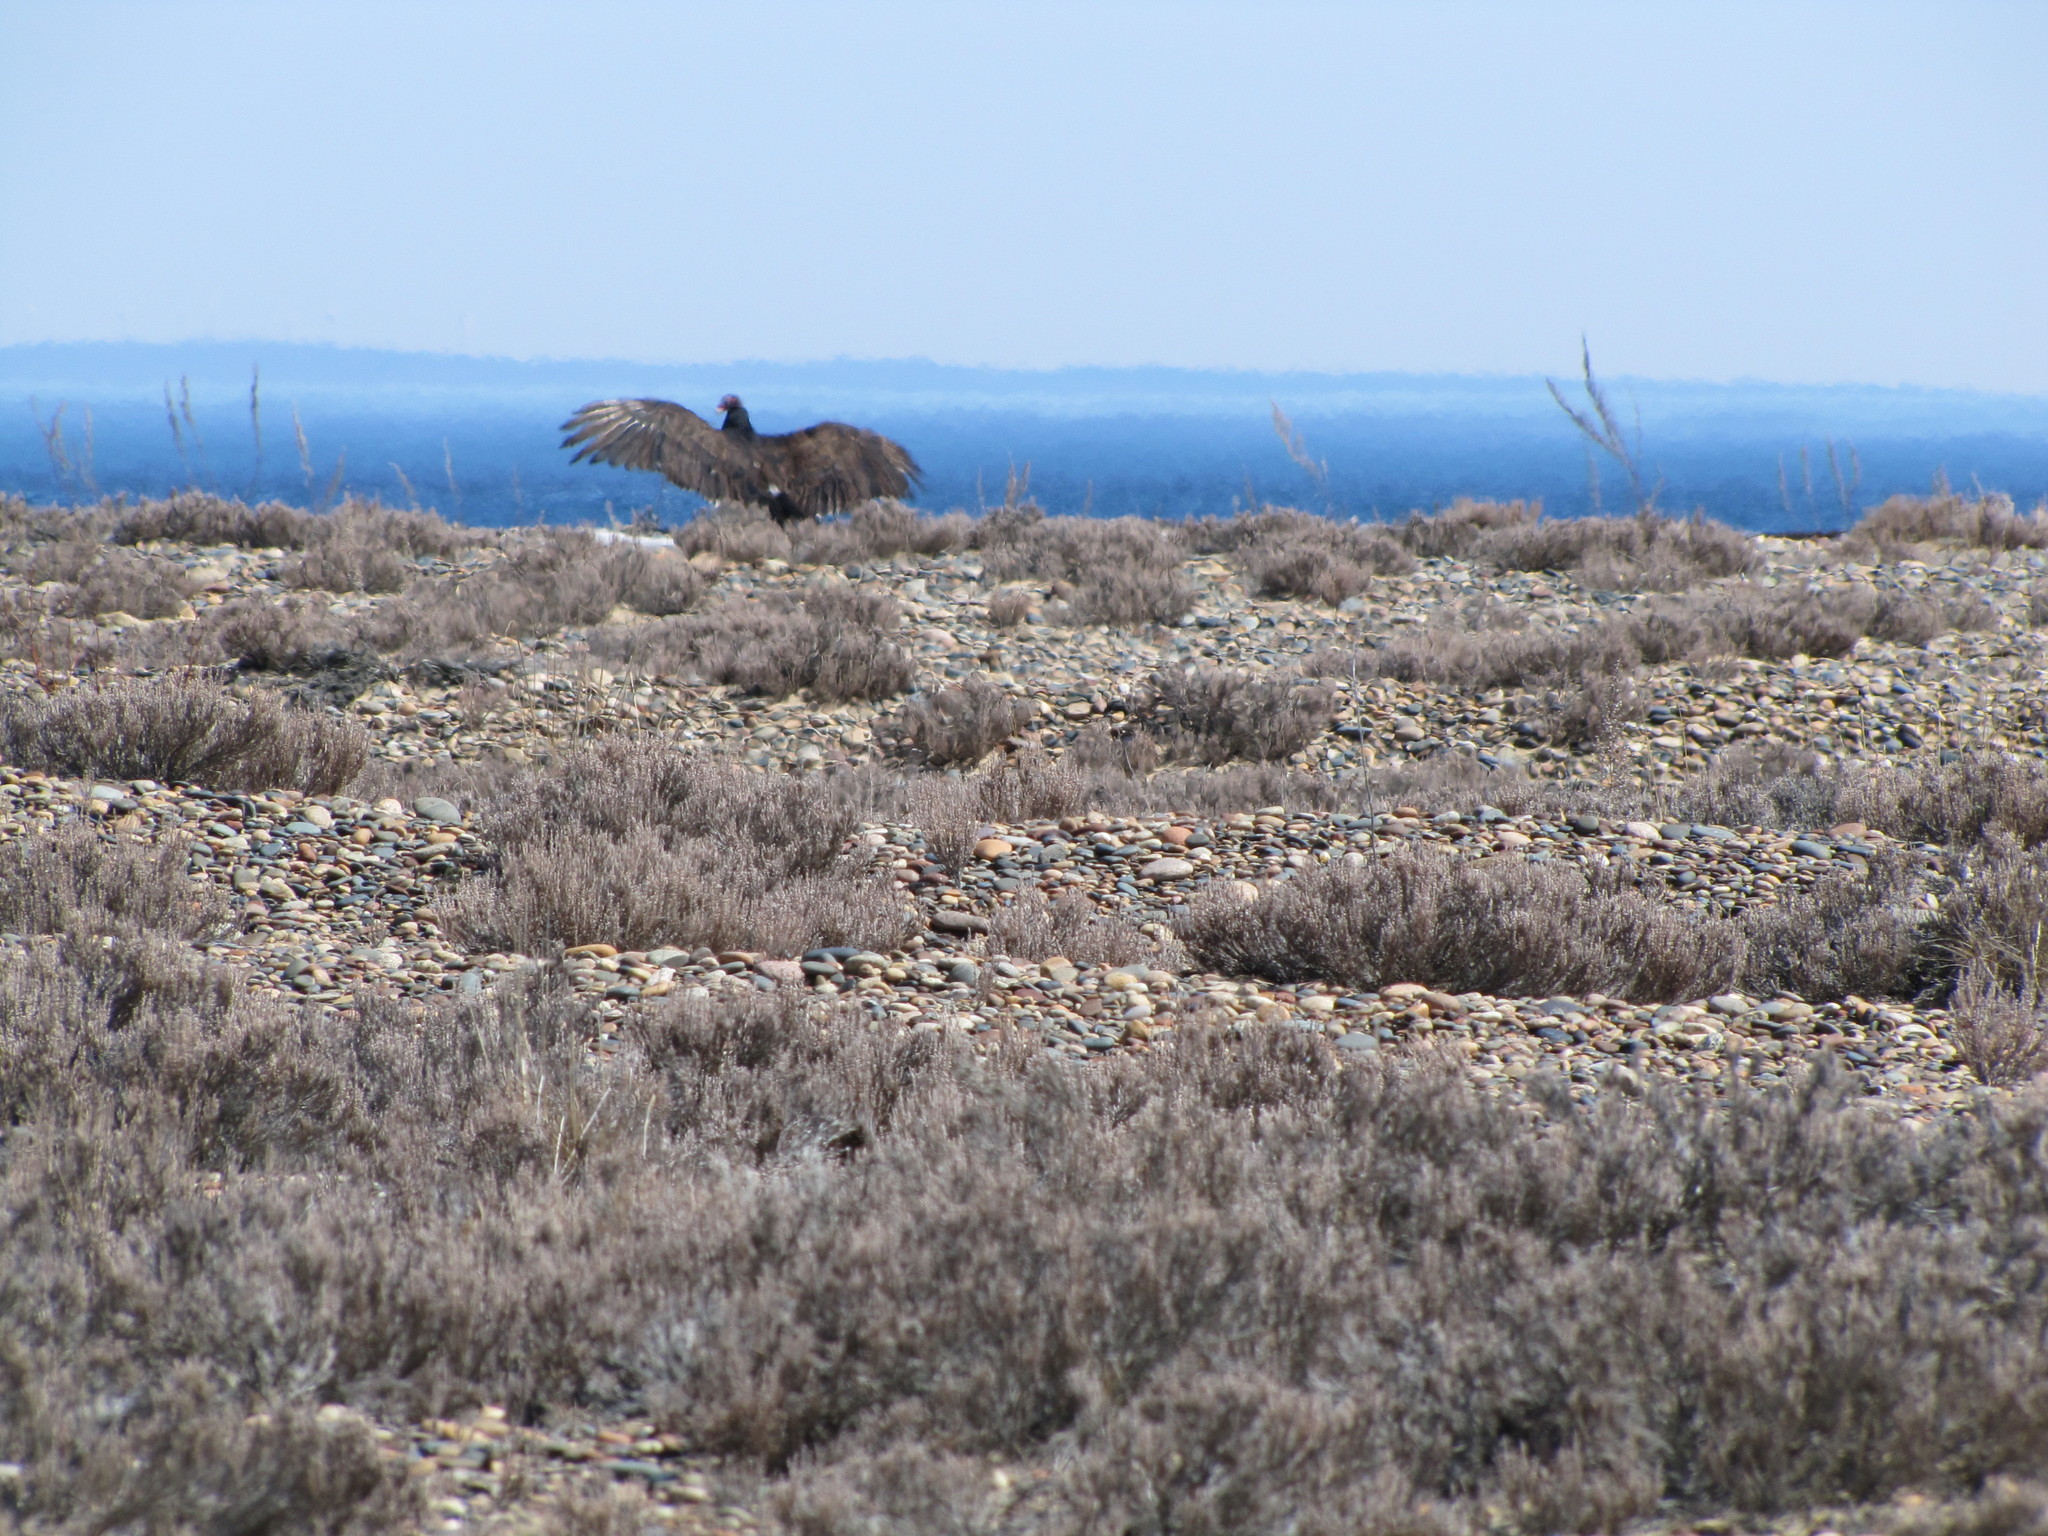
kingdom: Animalia
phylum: Chordata
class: Aves
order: Accipitriformes
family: Cathartidae
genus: Cathartes
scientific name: Cathartes aura
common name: Turkey vulture
